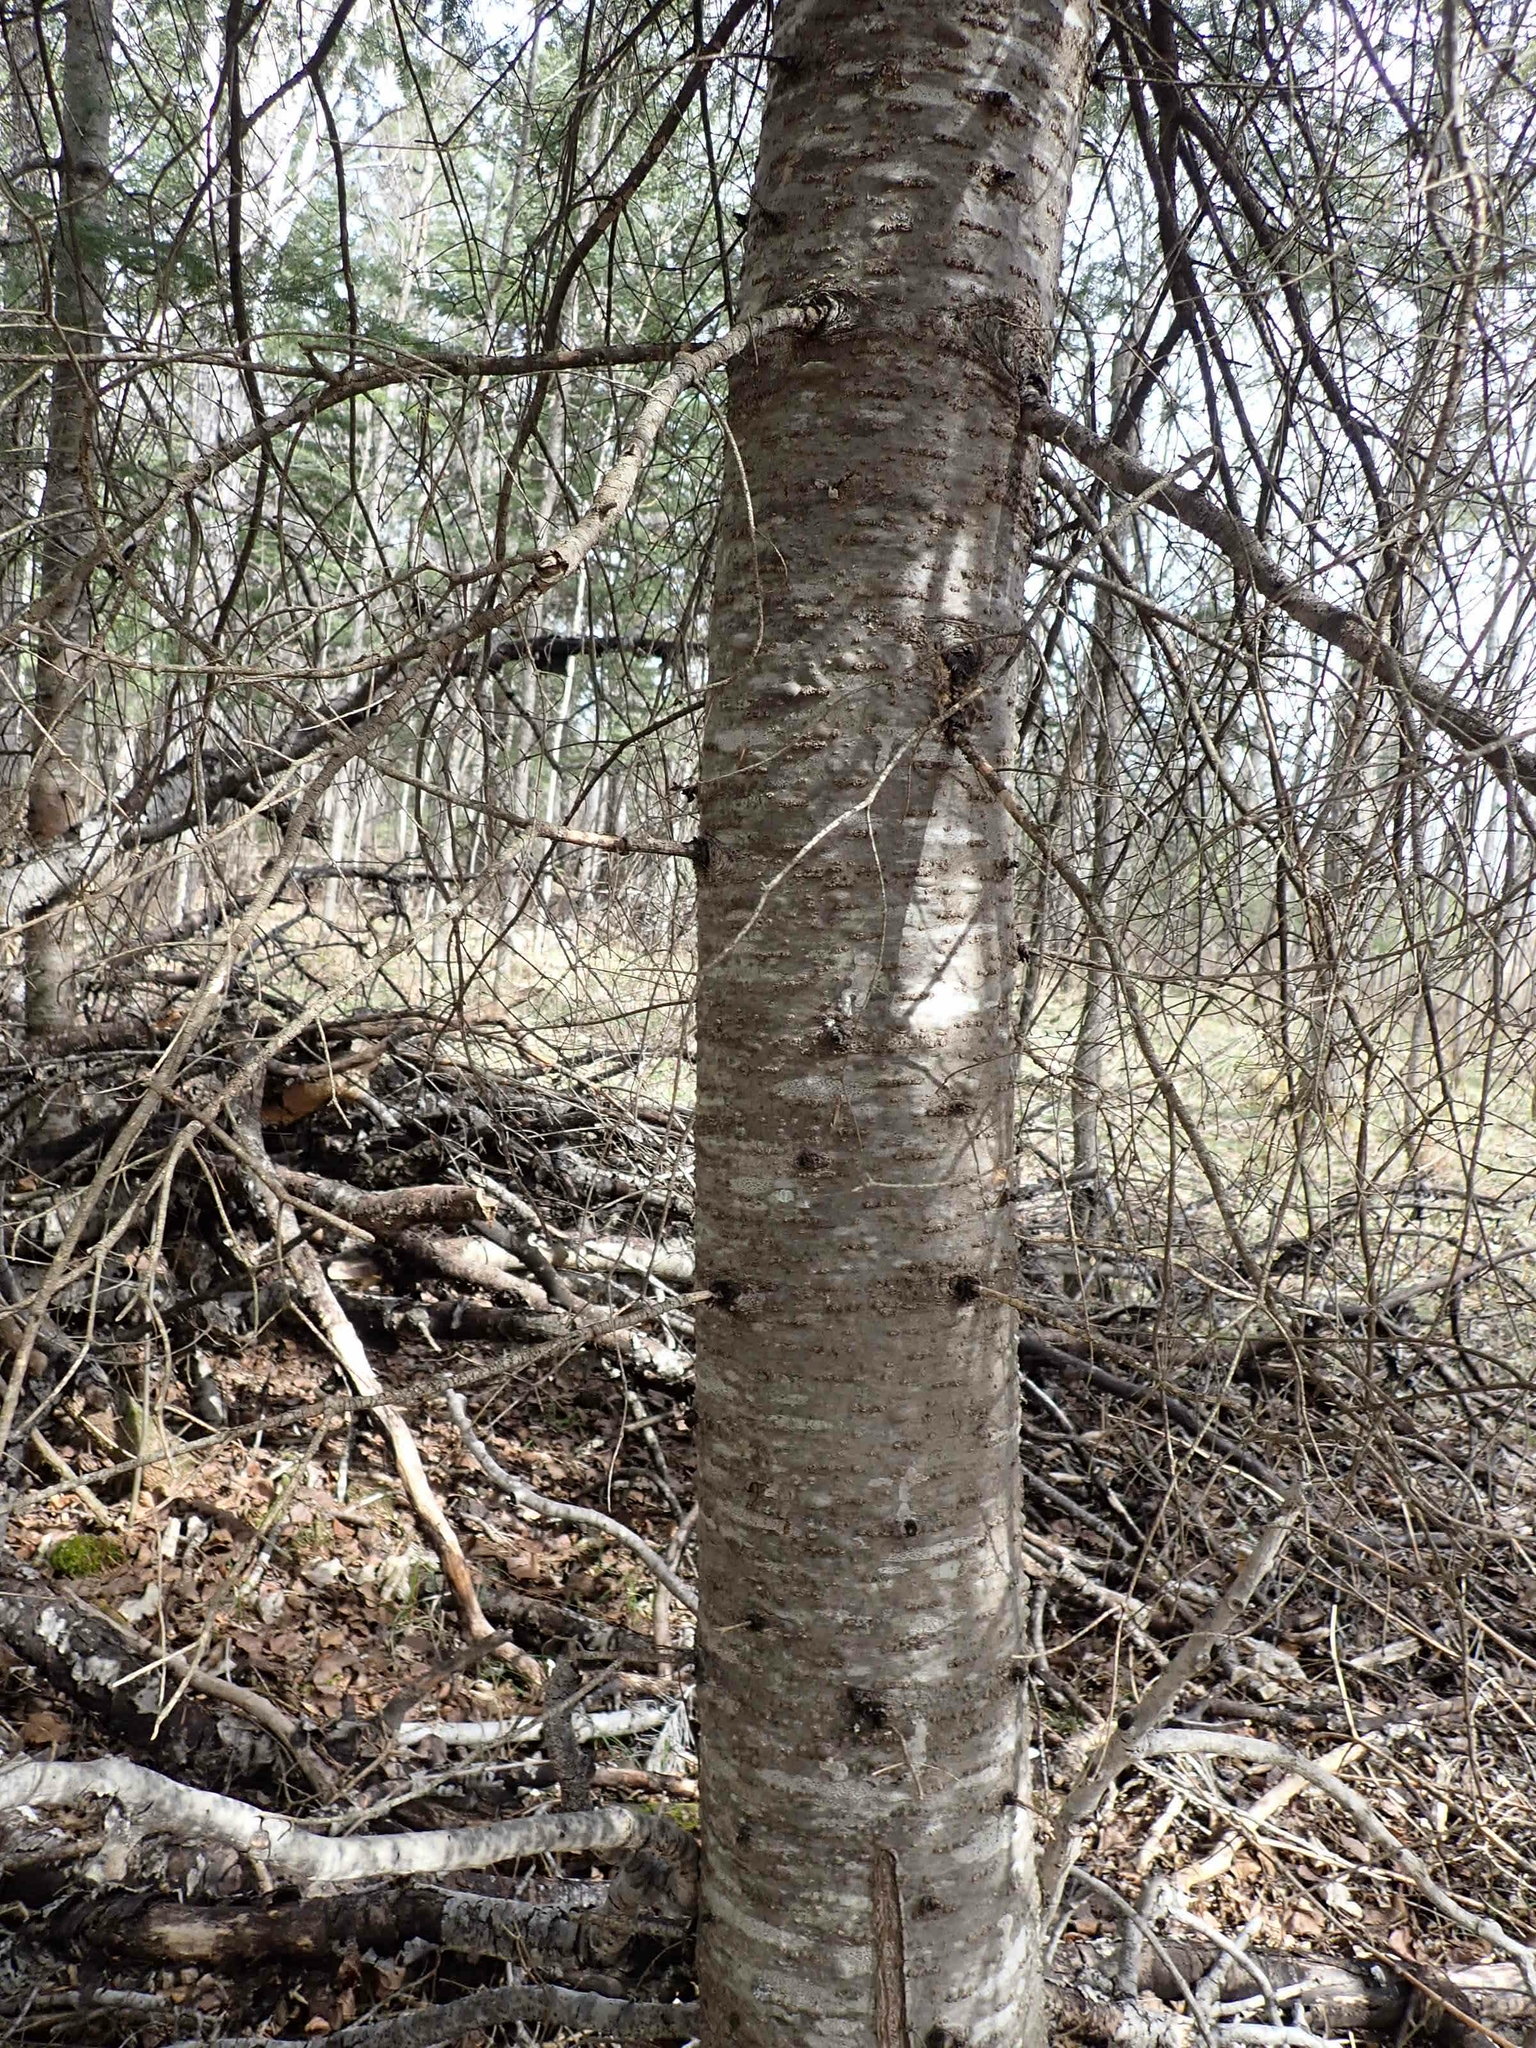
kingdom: Plantae
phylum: Tracheophyta
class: Pinopsida
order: Pinales
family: Pinaceae
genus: Abies
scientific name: Abies balsamea
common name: Balsam fir
